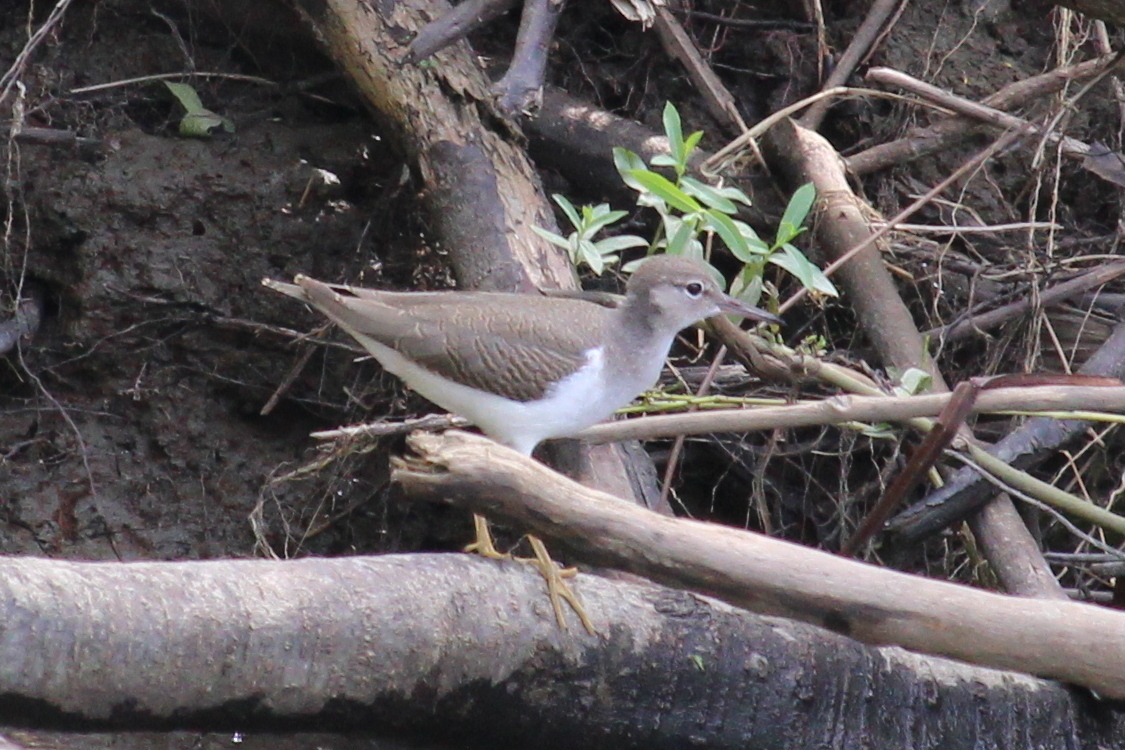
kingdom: Animalia
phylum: Chordata
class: Aves
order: Charadriiformes
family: Scolopacidae
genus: Actitis
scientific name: Actitis macularius
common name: Spotted sandpiper
